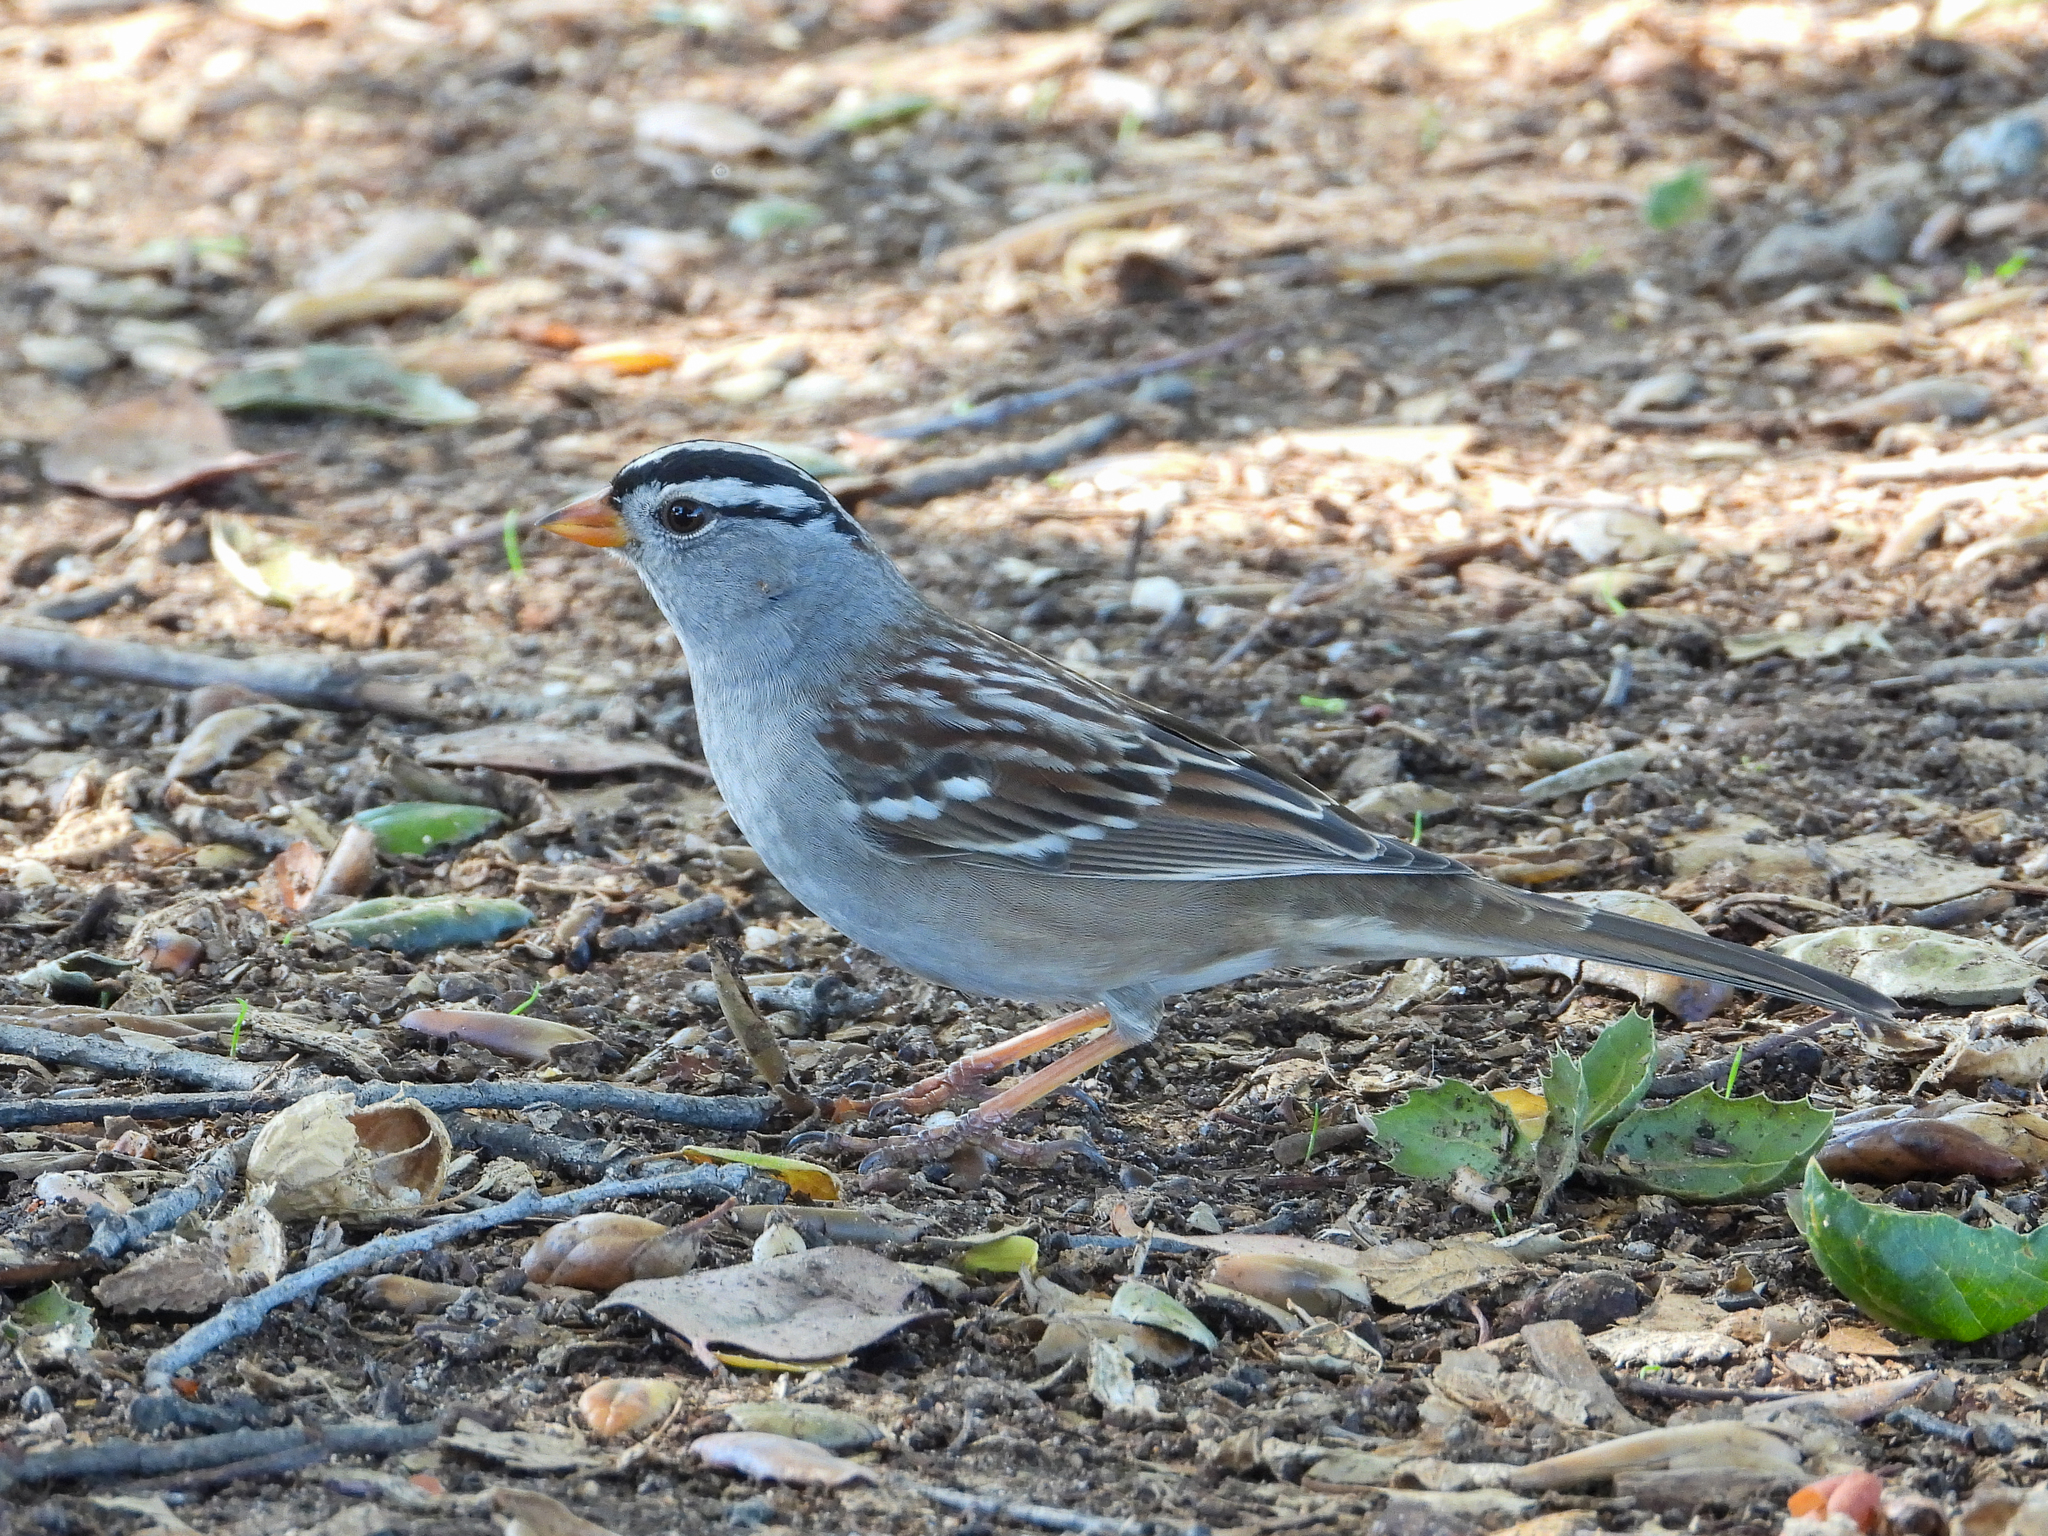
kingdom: Animalia
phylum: Chordata
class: Aves
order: Passeriformes
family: Passerellidae
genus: Zonotrichia
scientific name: Zonotrichia leucophrys
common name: White-crowned sparrow
